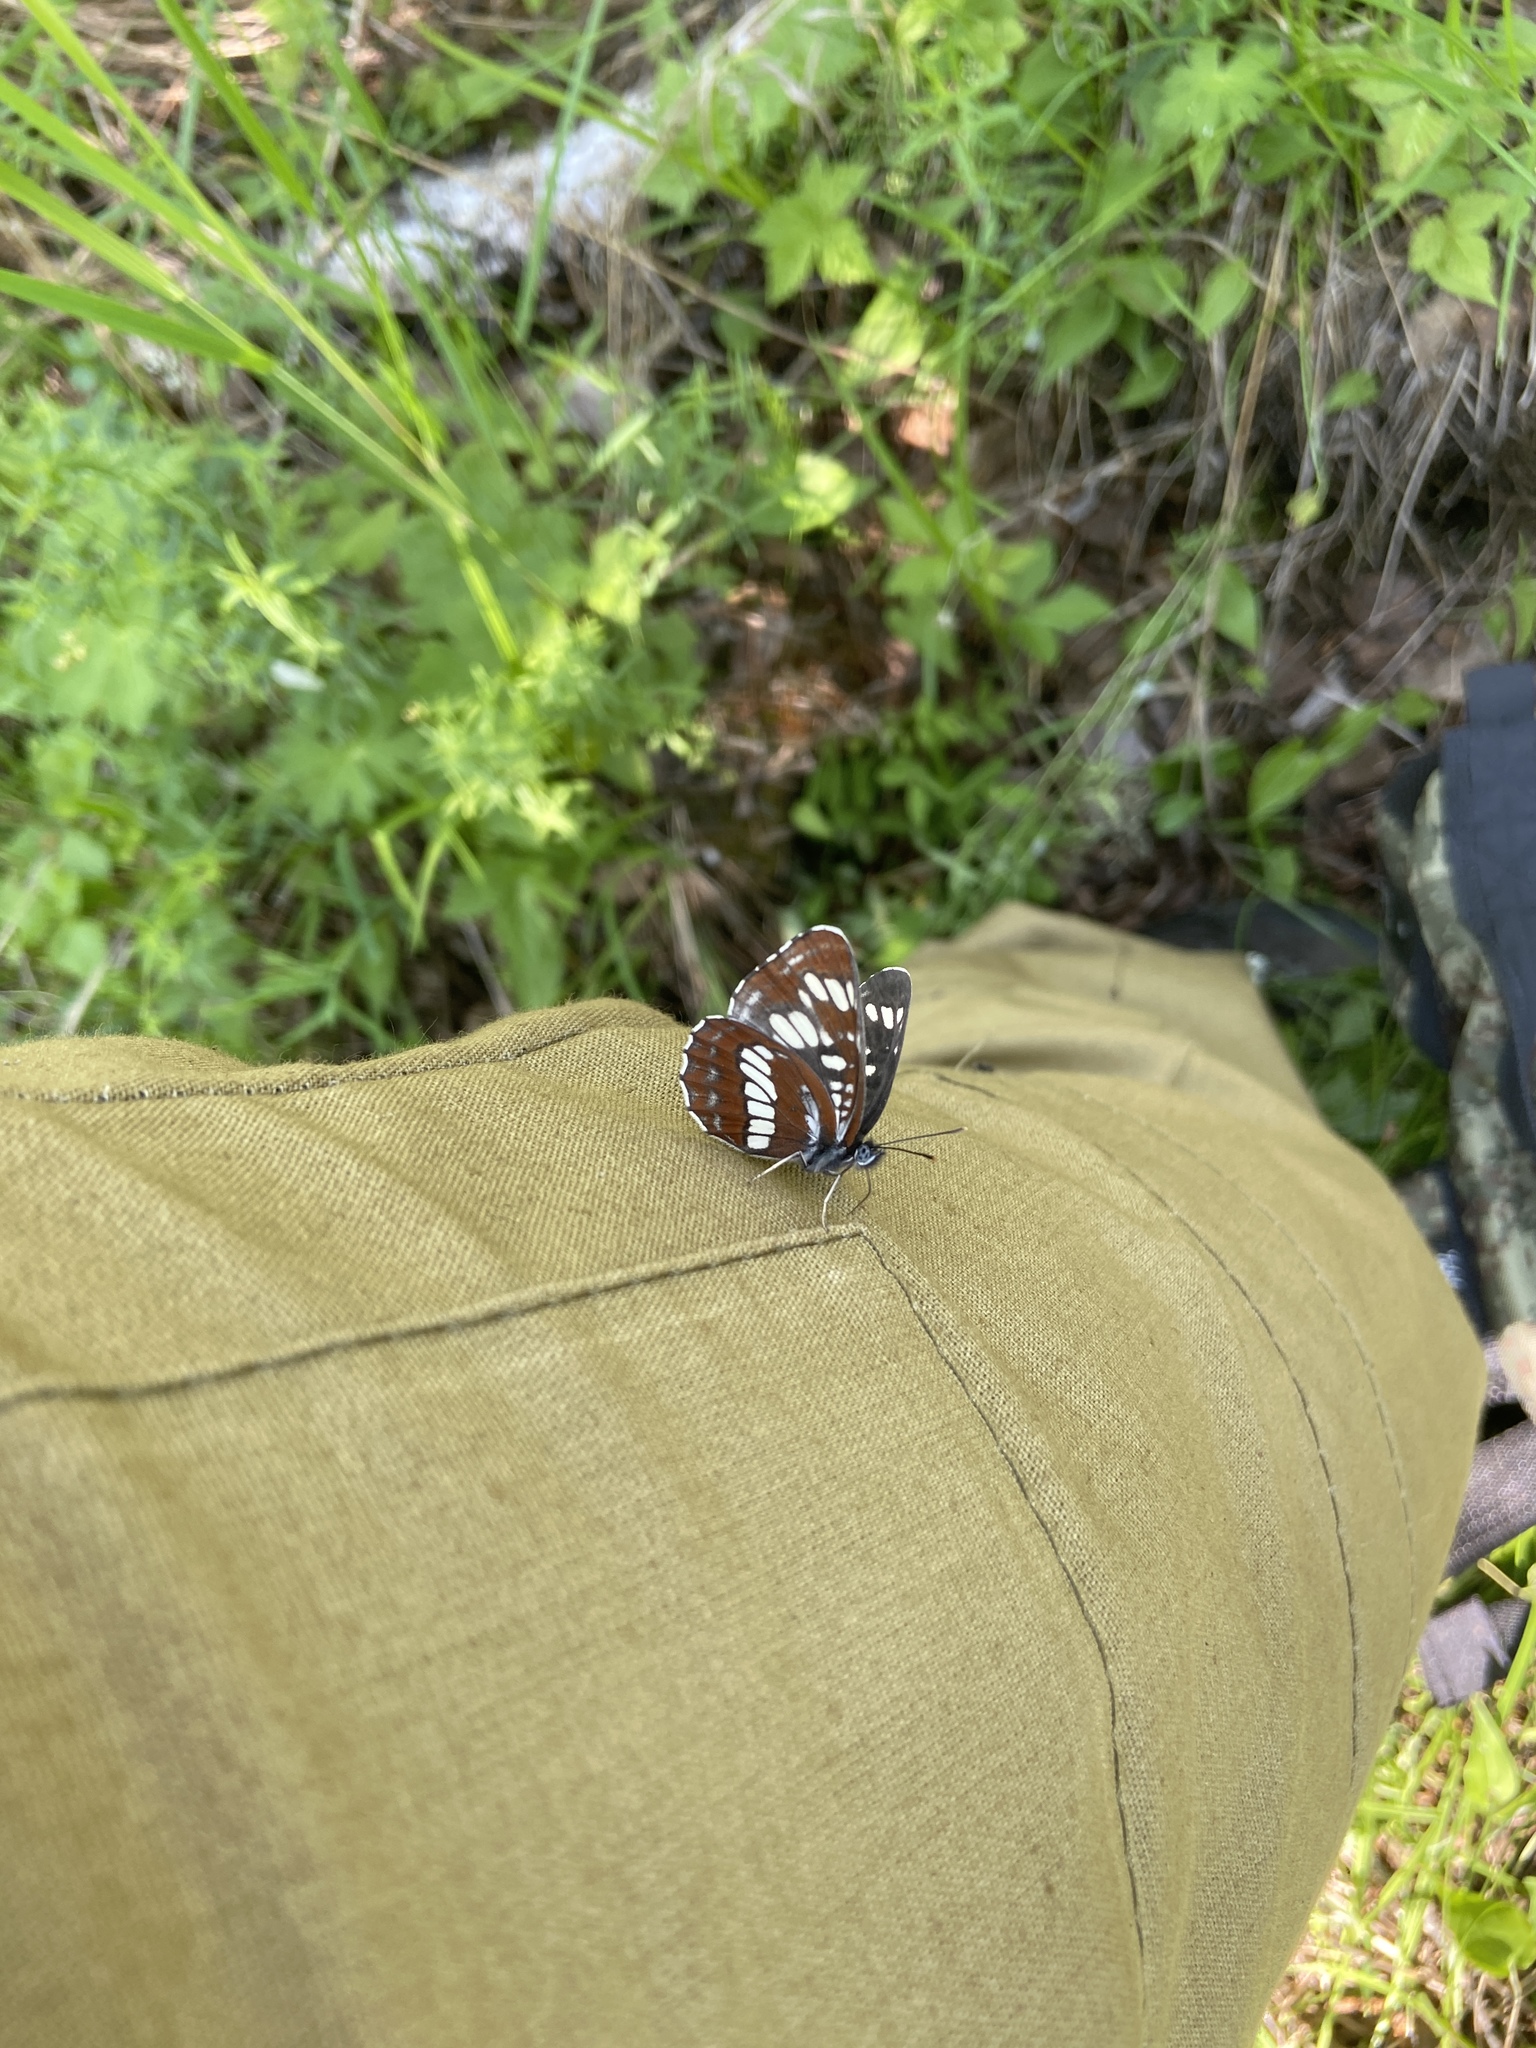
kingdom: Animalia
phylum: Arthropoda
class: Insecta
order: Lepidoptera
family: Nymphalidae
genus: Neptis
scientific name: Neptis rivularis
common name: Hungarian glider
